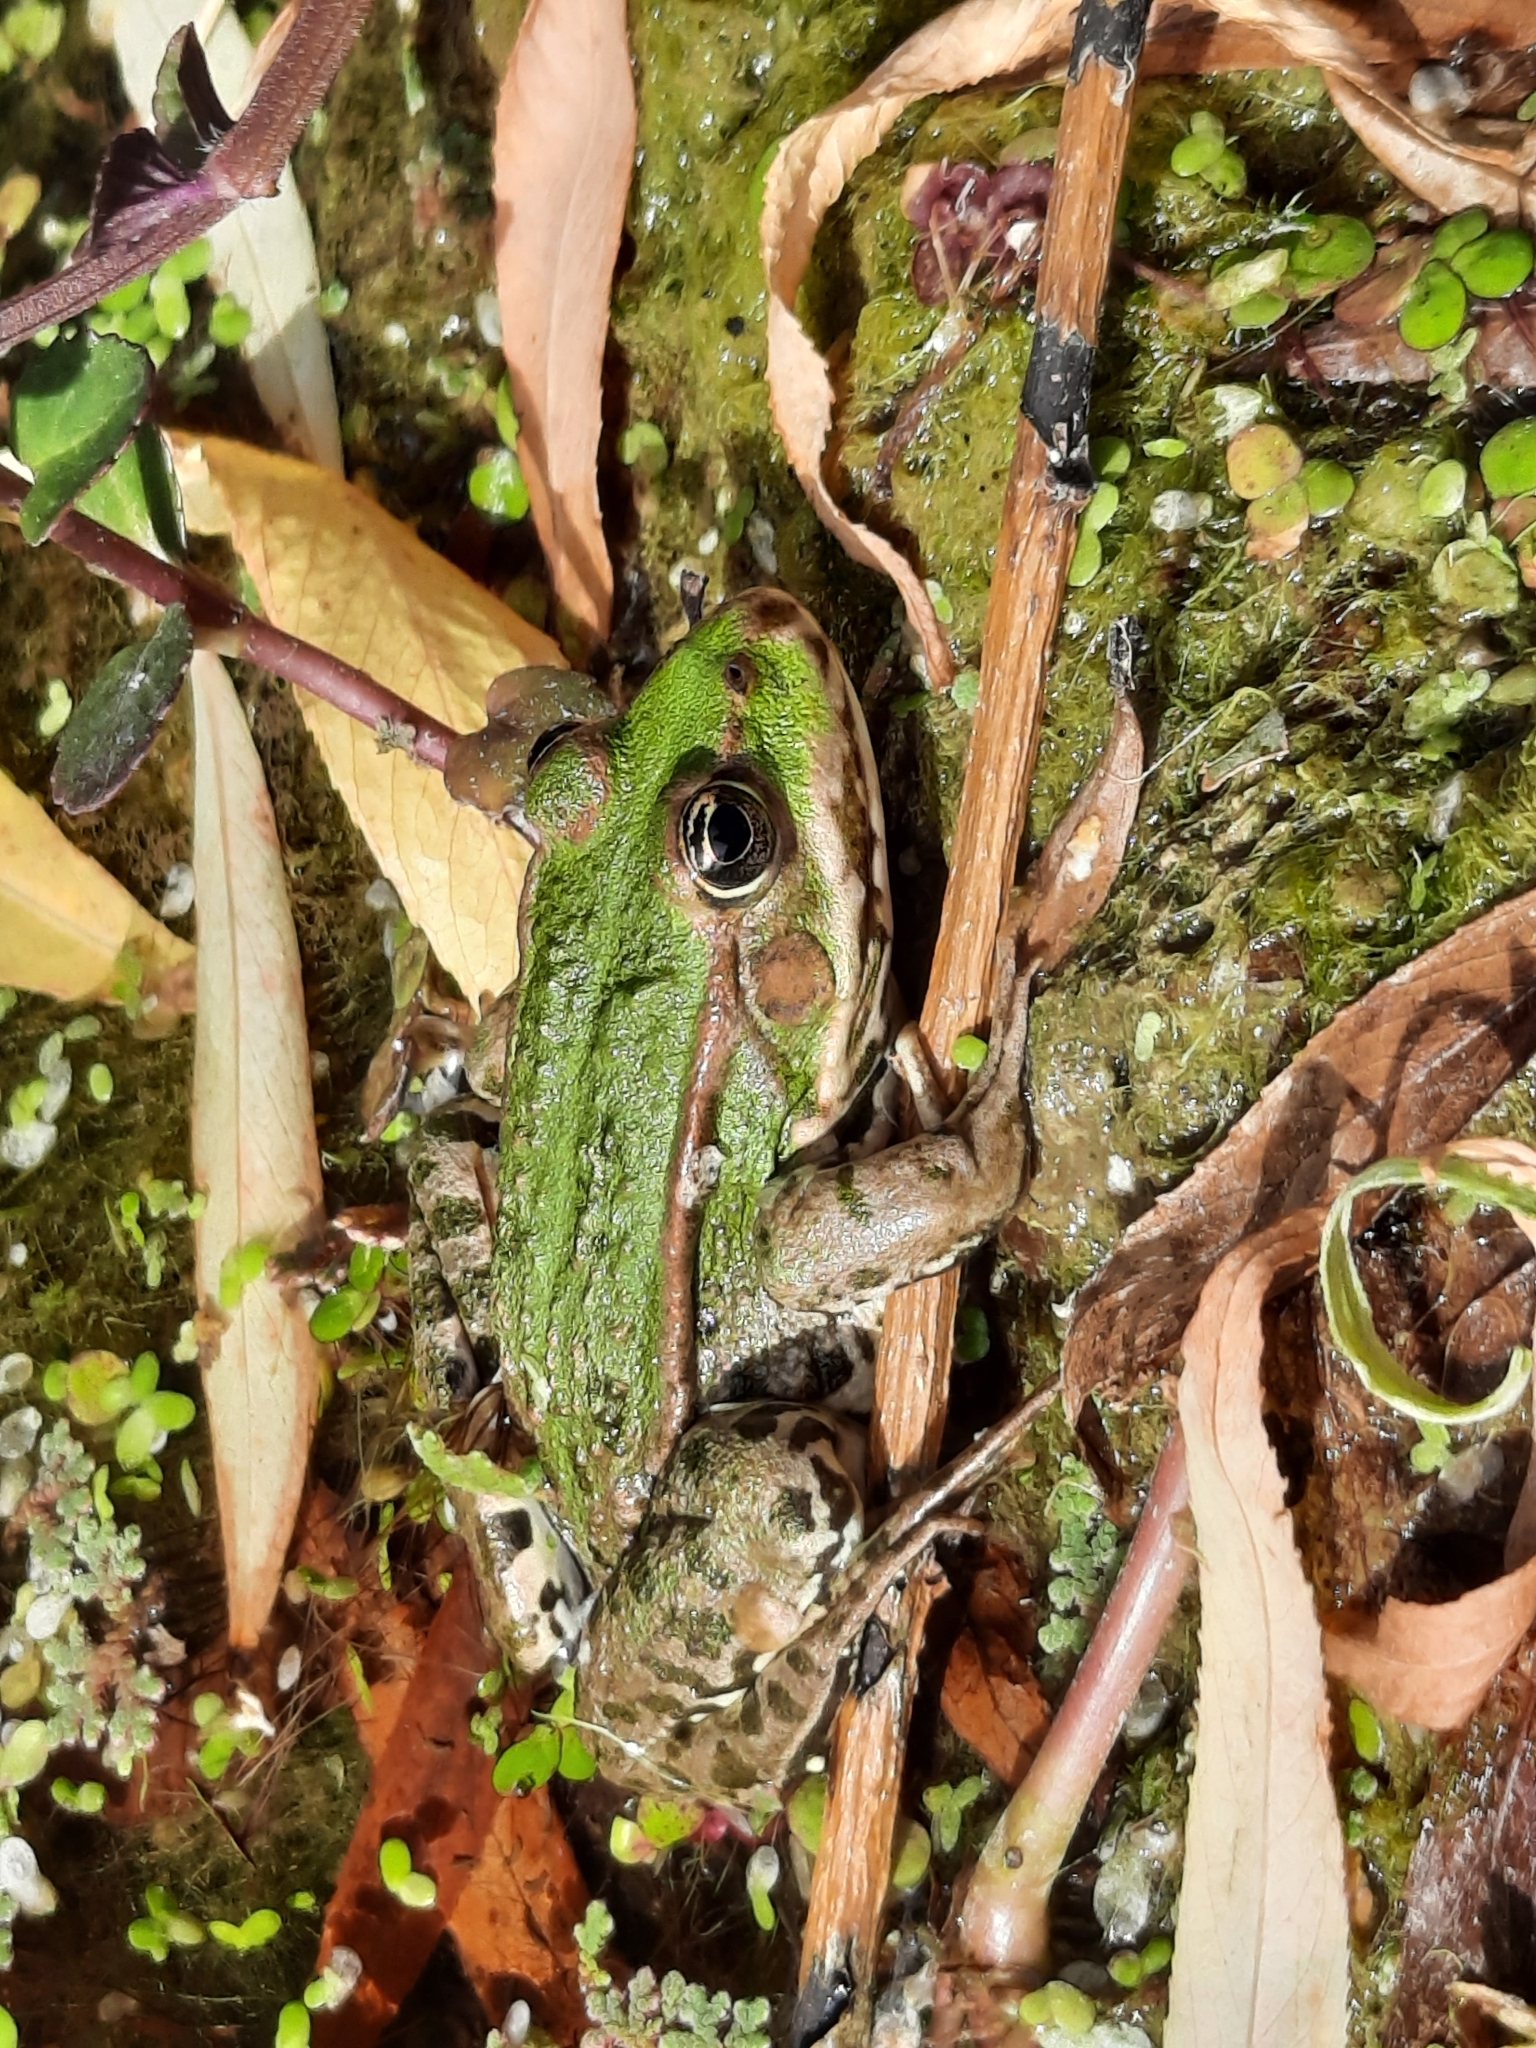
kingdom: Animalia
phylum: Chordata
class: Amphibia
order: Anura
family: Ranidae
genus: Pelophylax
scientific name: Pelophylax
